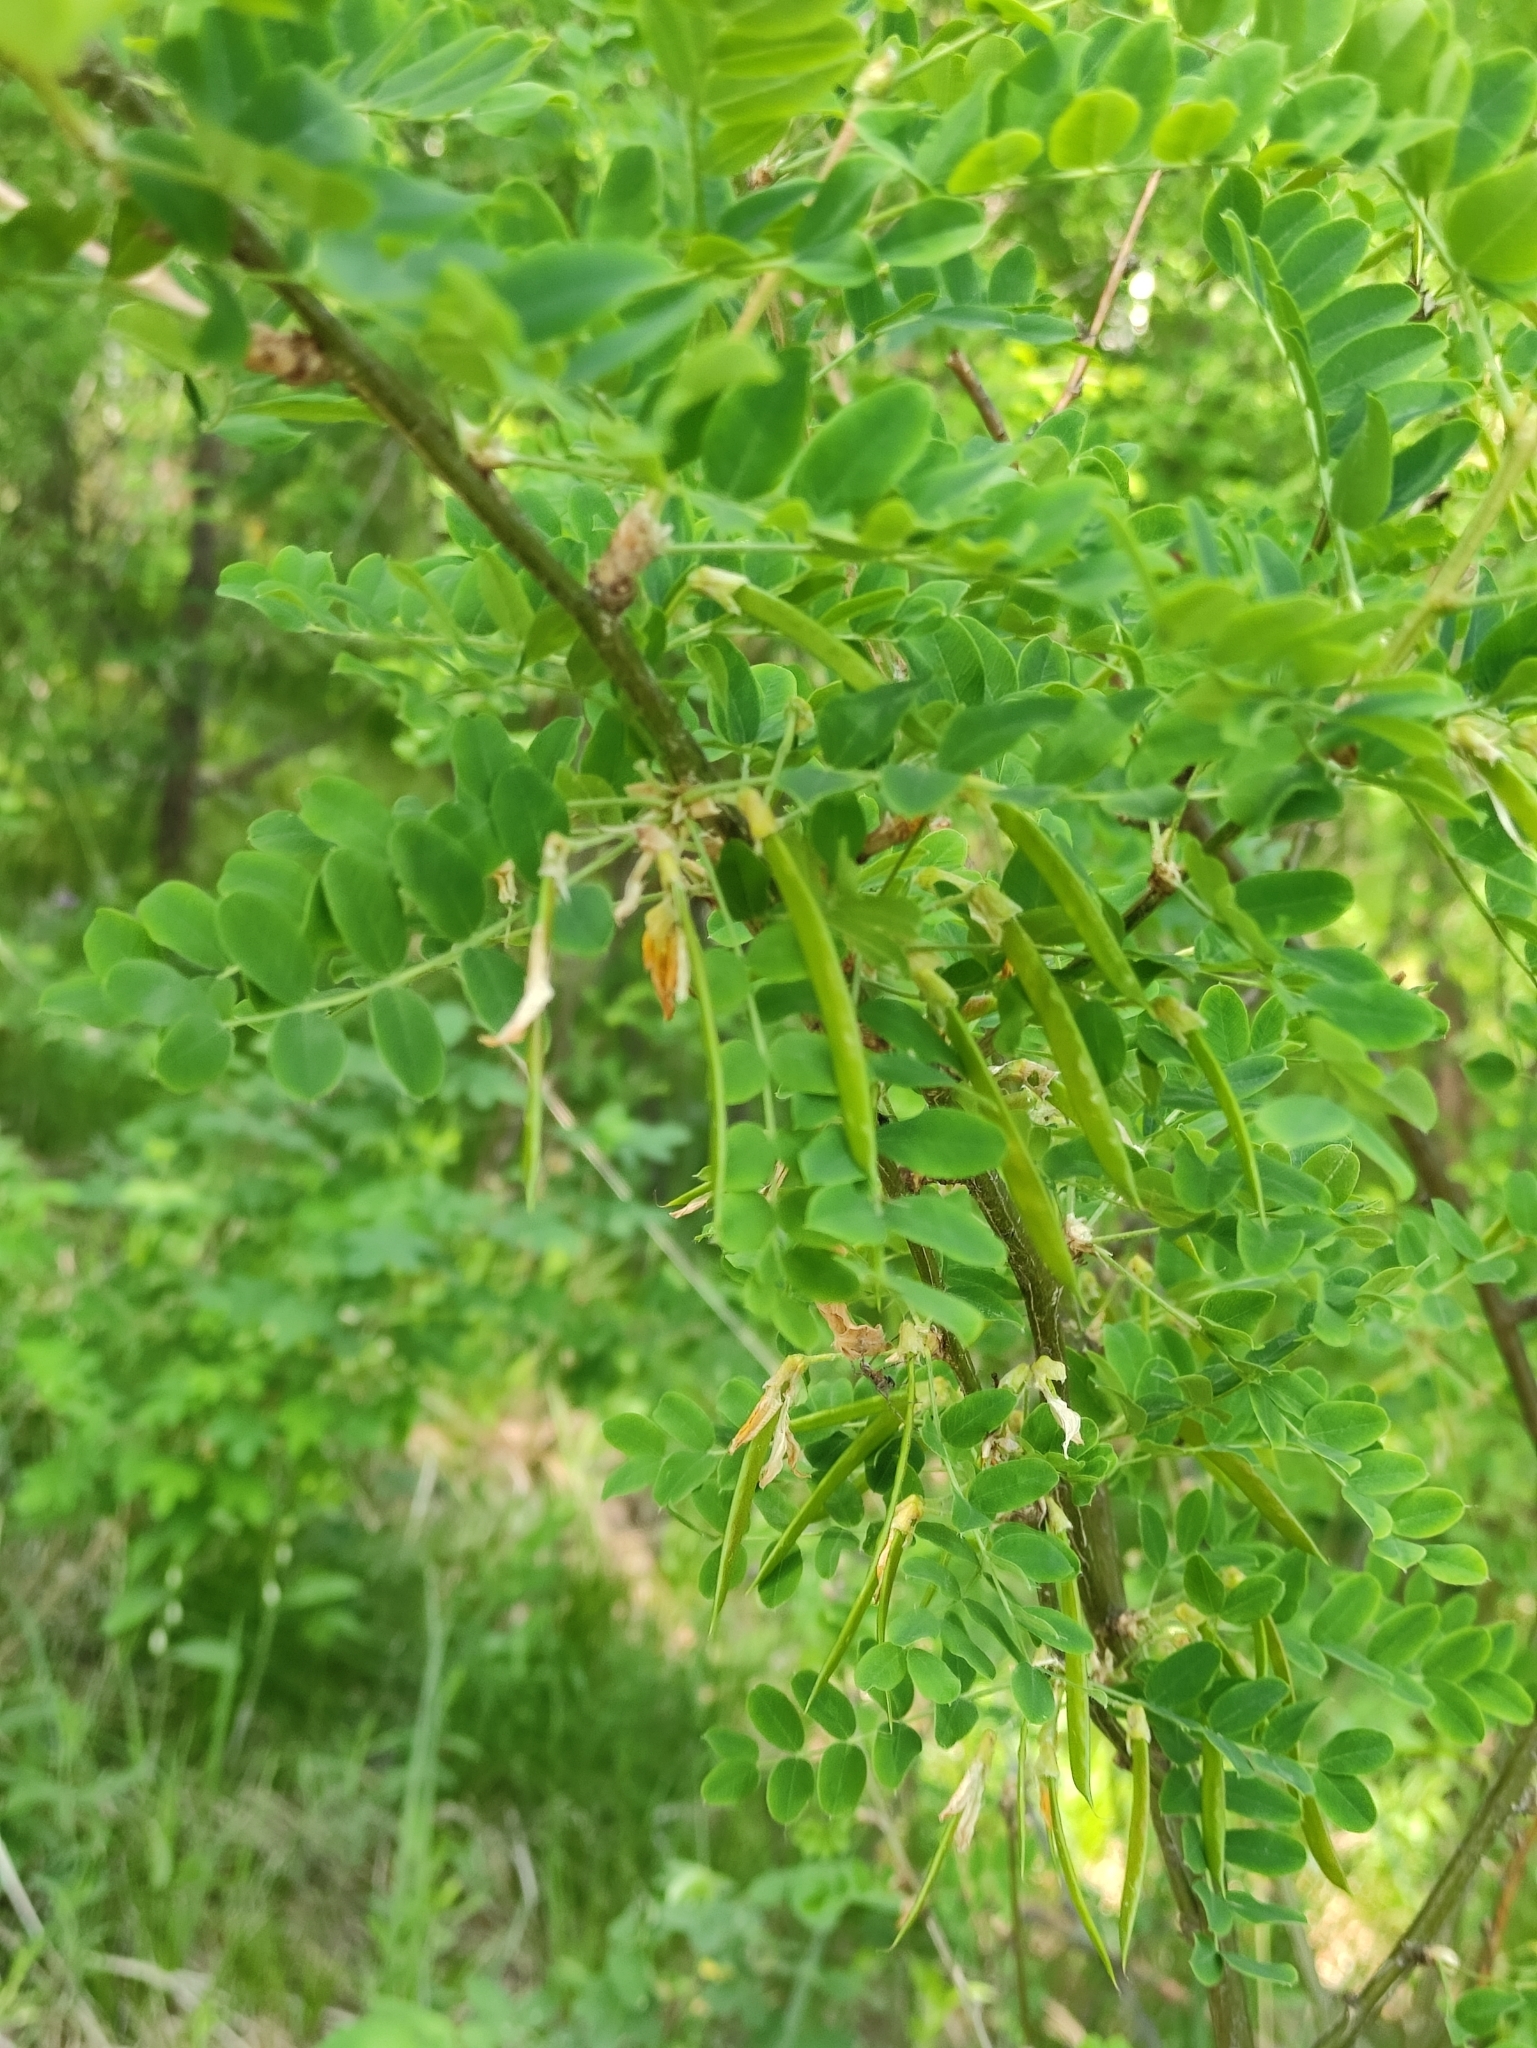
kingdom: Plantae
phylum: Tracheophyta
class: Magnoliopsida
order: Fabales
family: Fabaceae
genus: Caragana
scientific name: Caragana arborescens
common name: Siberian peashrub
